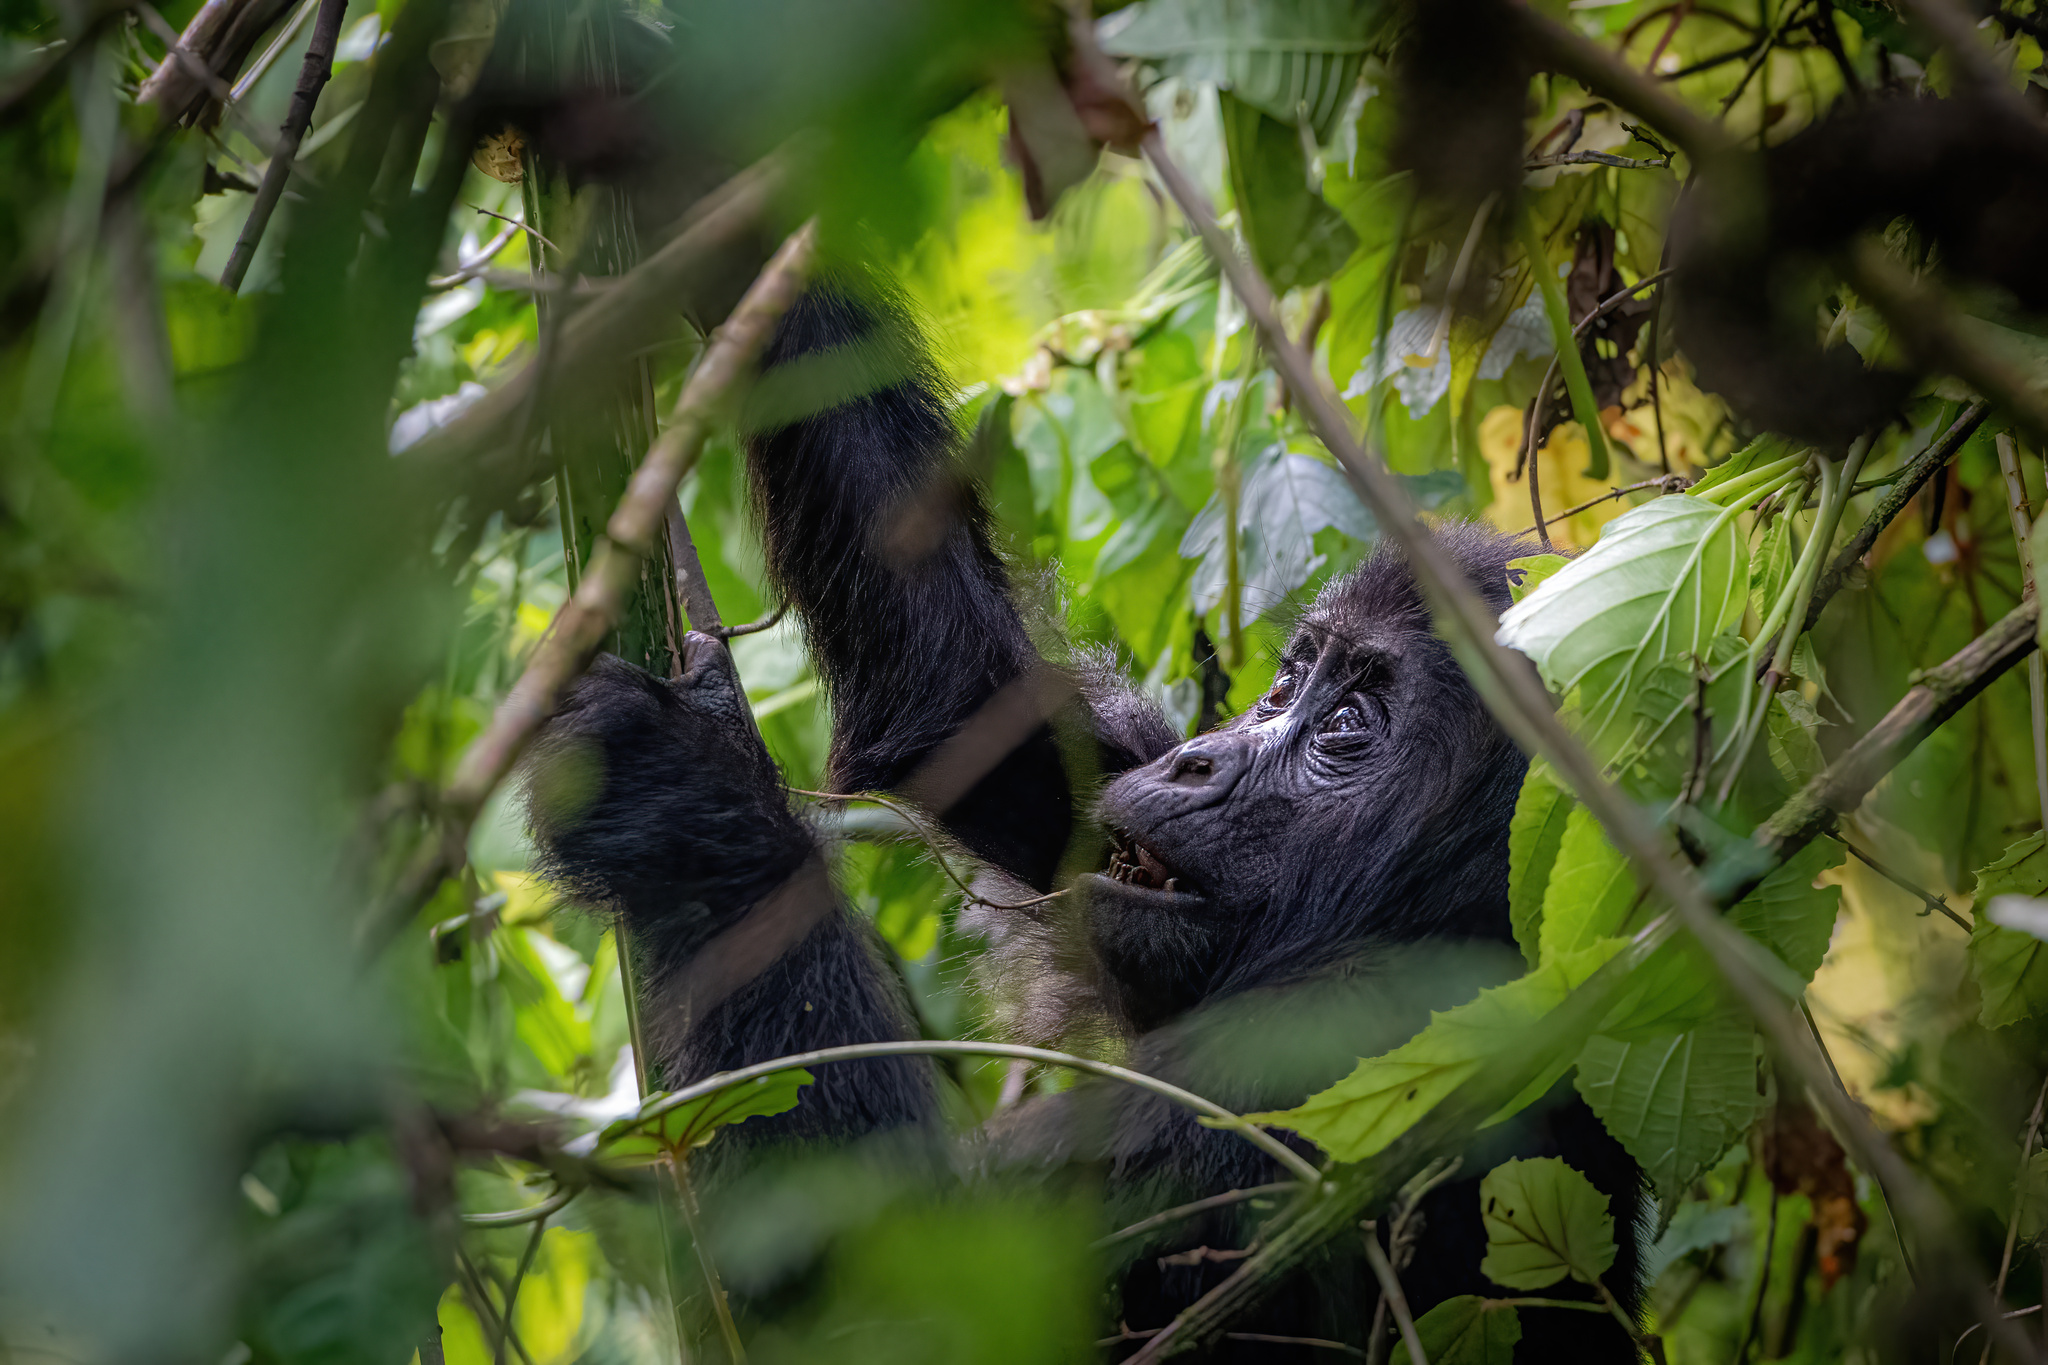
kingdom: Animalia
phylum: Chordata
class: Mammalia
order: Primates
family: Hominidae
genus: Gorilla
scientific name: Gorilla beringei
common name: Eastern gorilla
